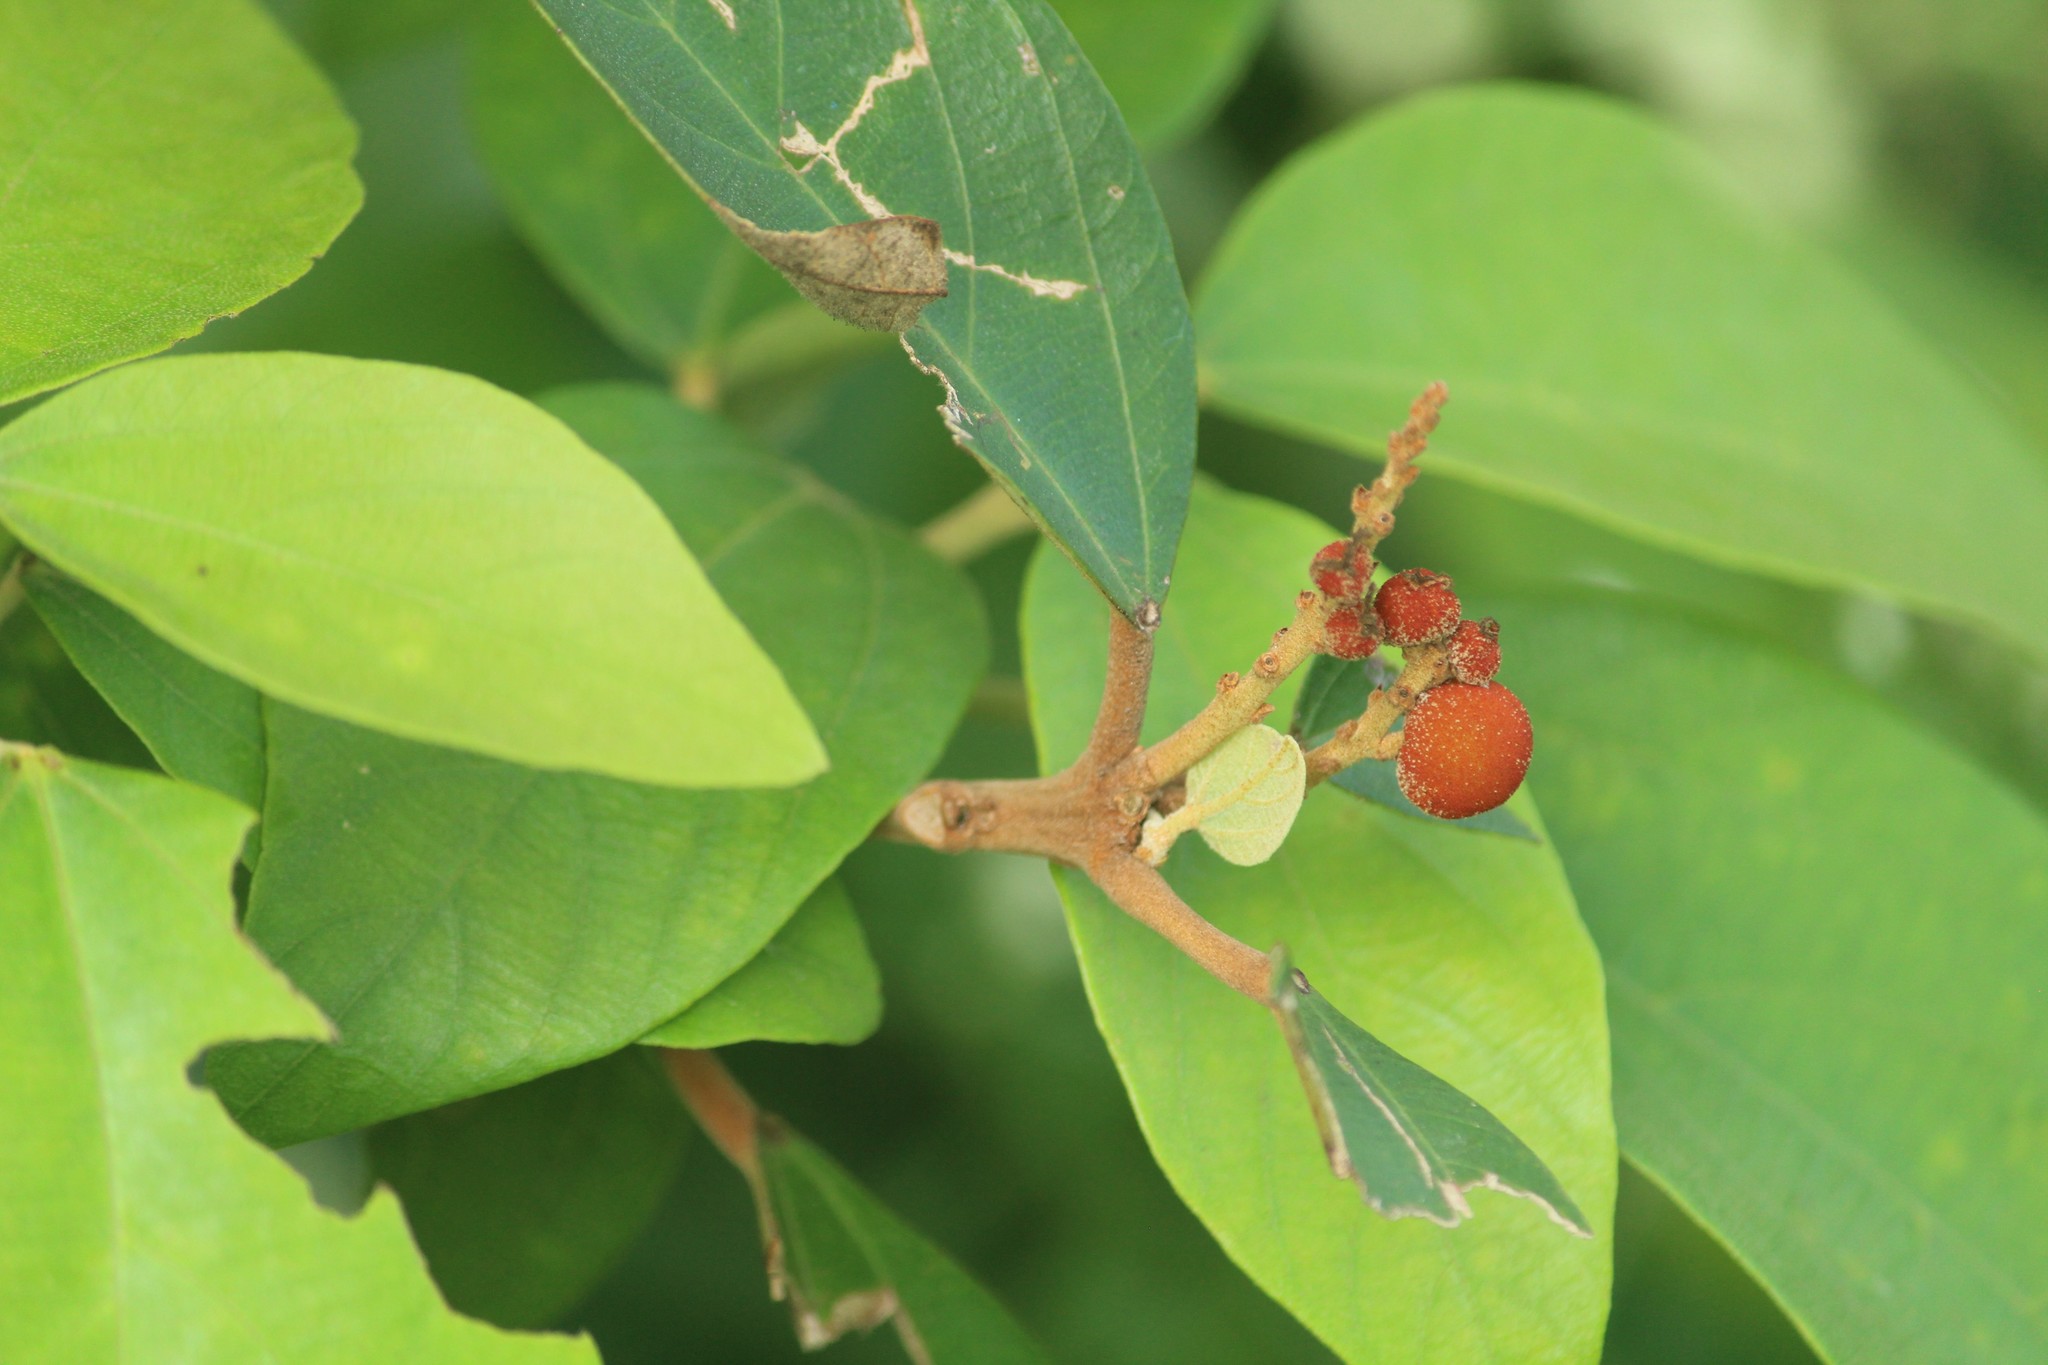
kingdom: Plantae
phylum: Tracheophyta
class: Magnoliopsida
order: Malpighiales
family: Euphorbiaceae
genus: Mallotus
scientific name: Mallotus philippensis
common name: Kamala tree
